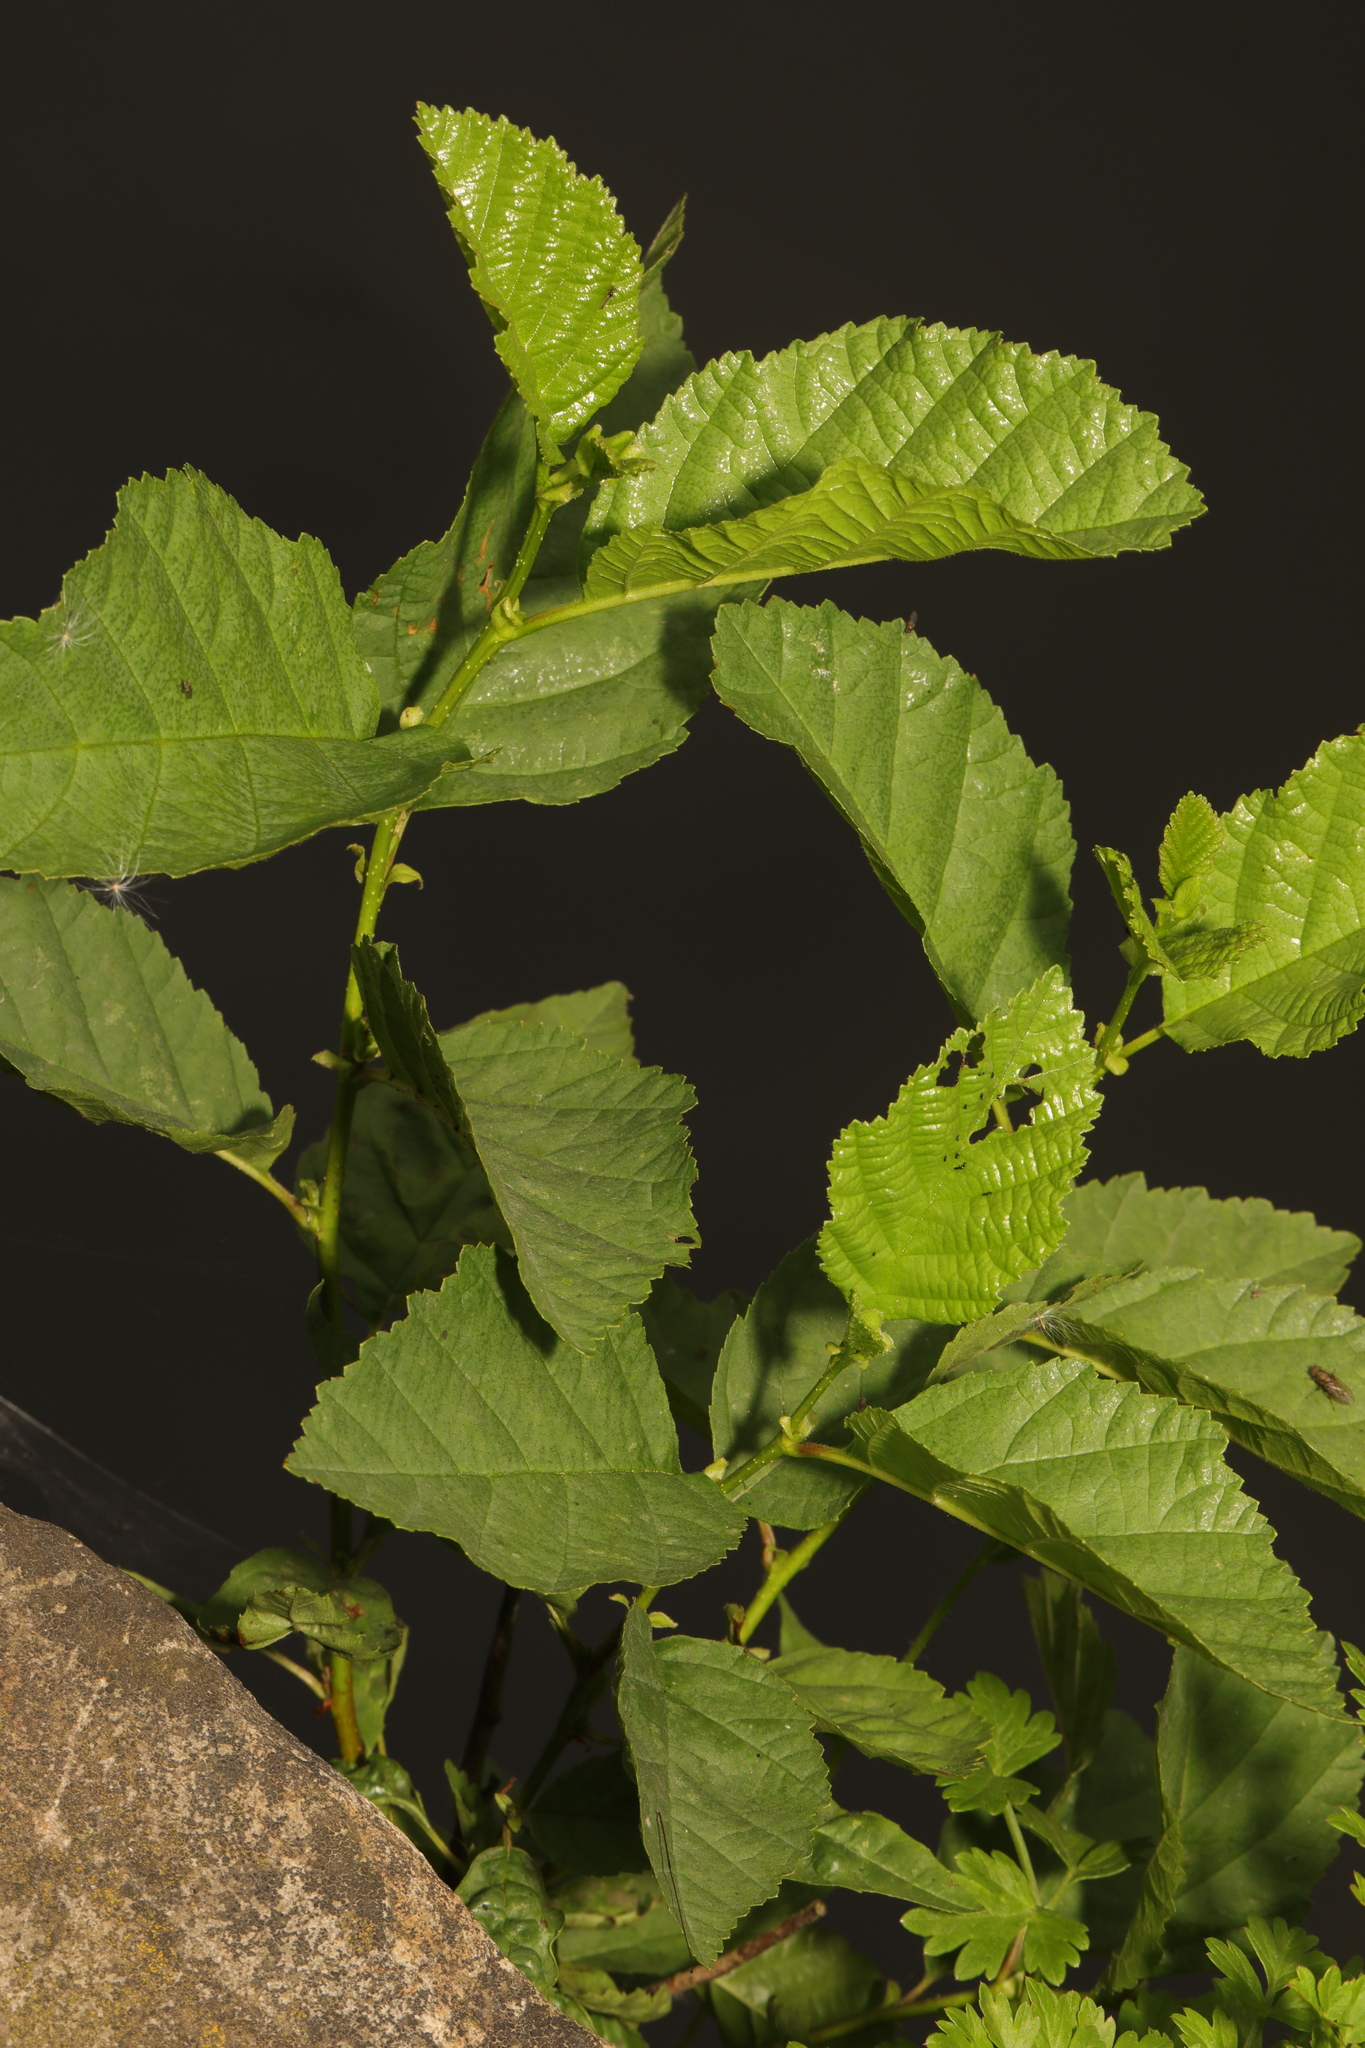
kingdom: Plantae
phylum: Tracheophyta
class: Magnoliopsida
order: Fagales
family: Betulaceae
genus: Alnus
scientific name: Alnus glutinosa
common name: Black alder
